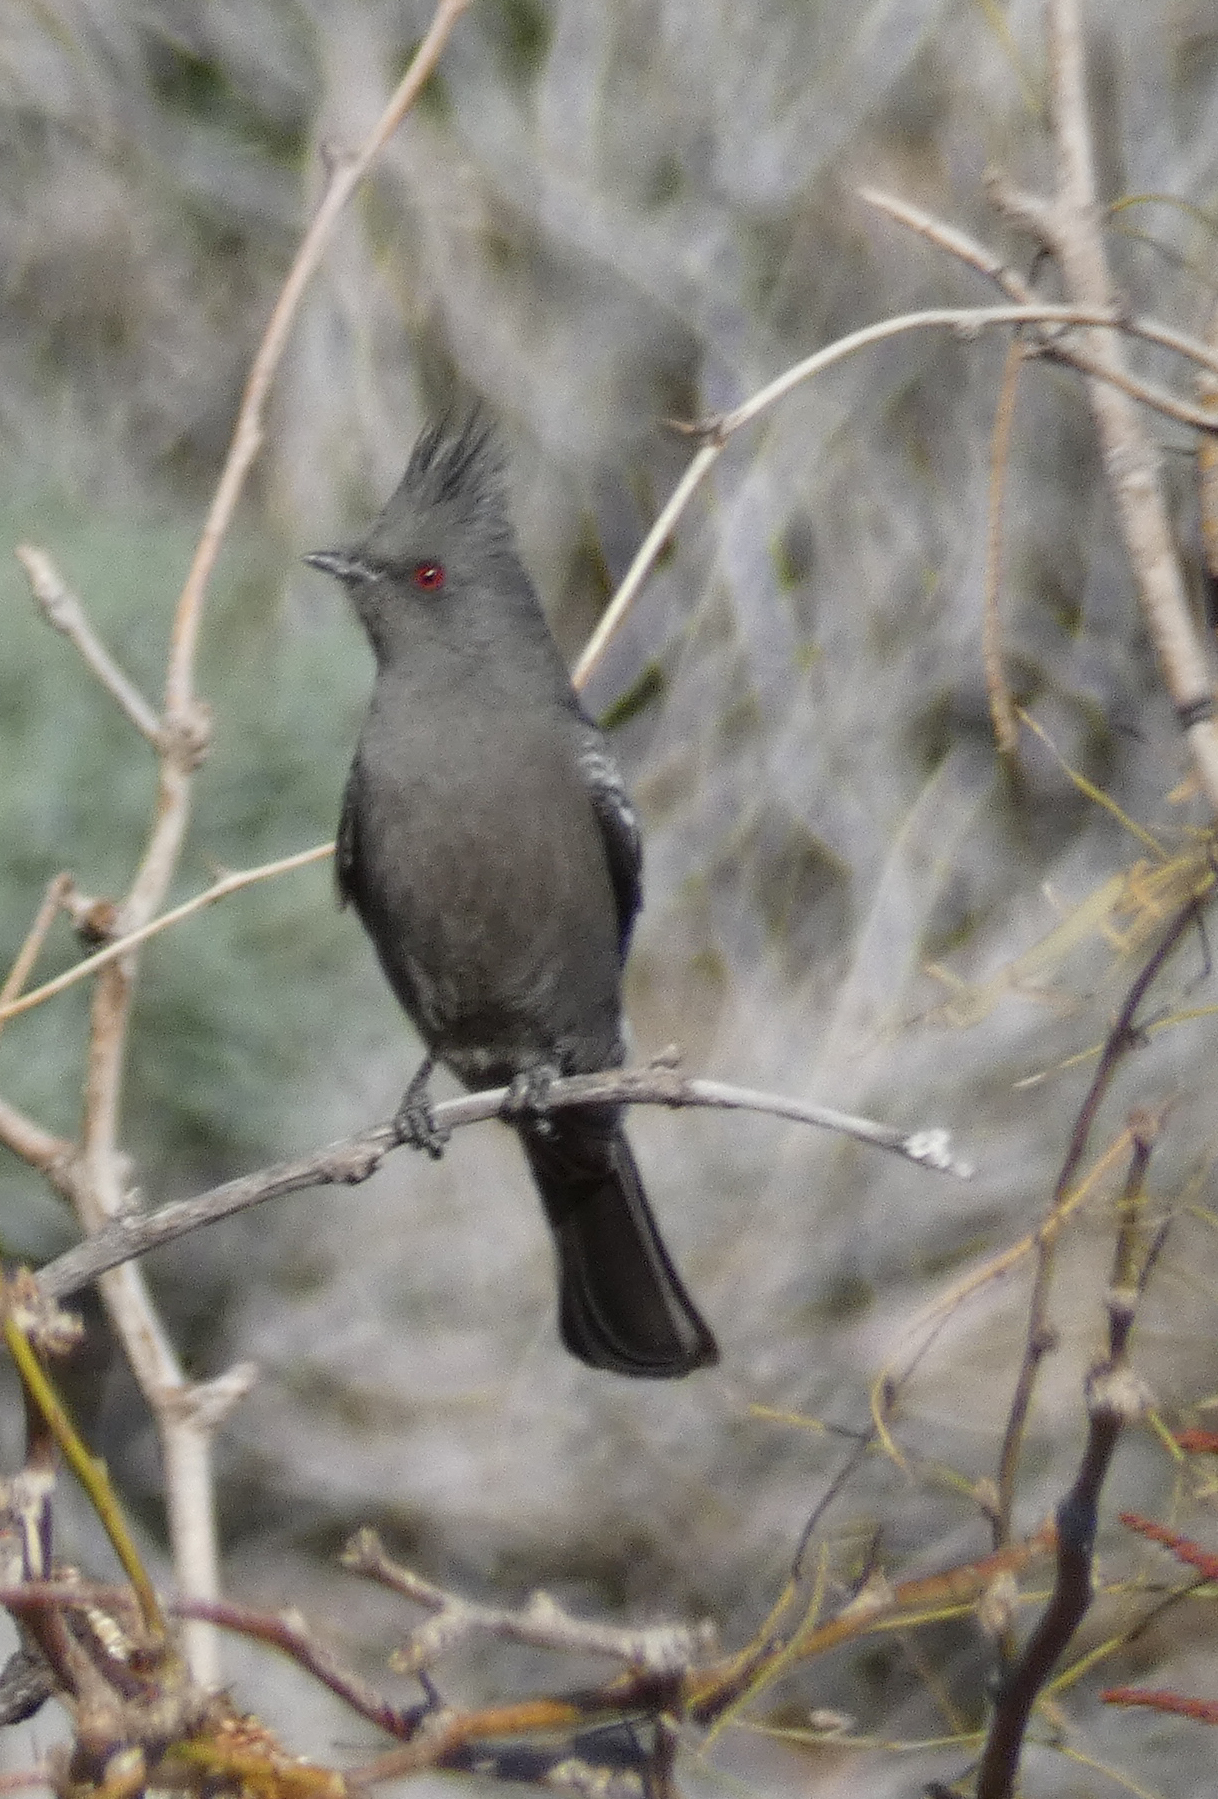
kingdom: Animalia
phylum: Chordata
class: Aves
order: Passeriformes
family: Ptilogonatidae
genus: Phainopepla
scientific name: Phainopepla nitens
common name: Phainopepla
